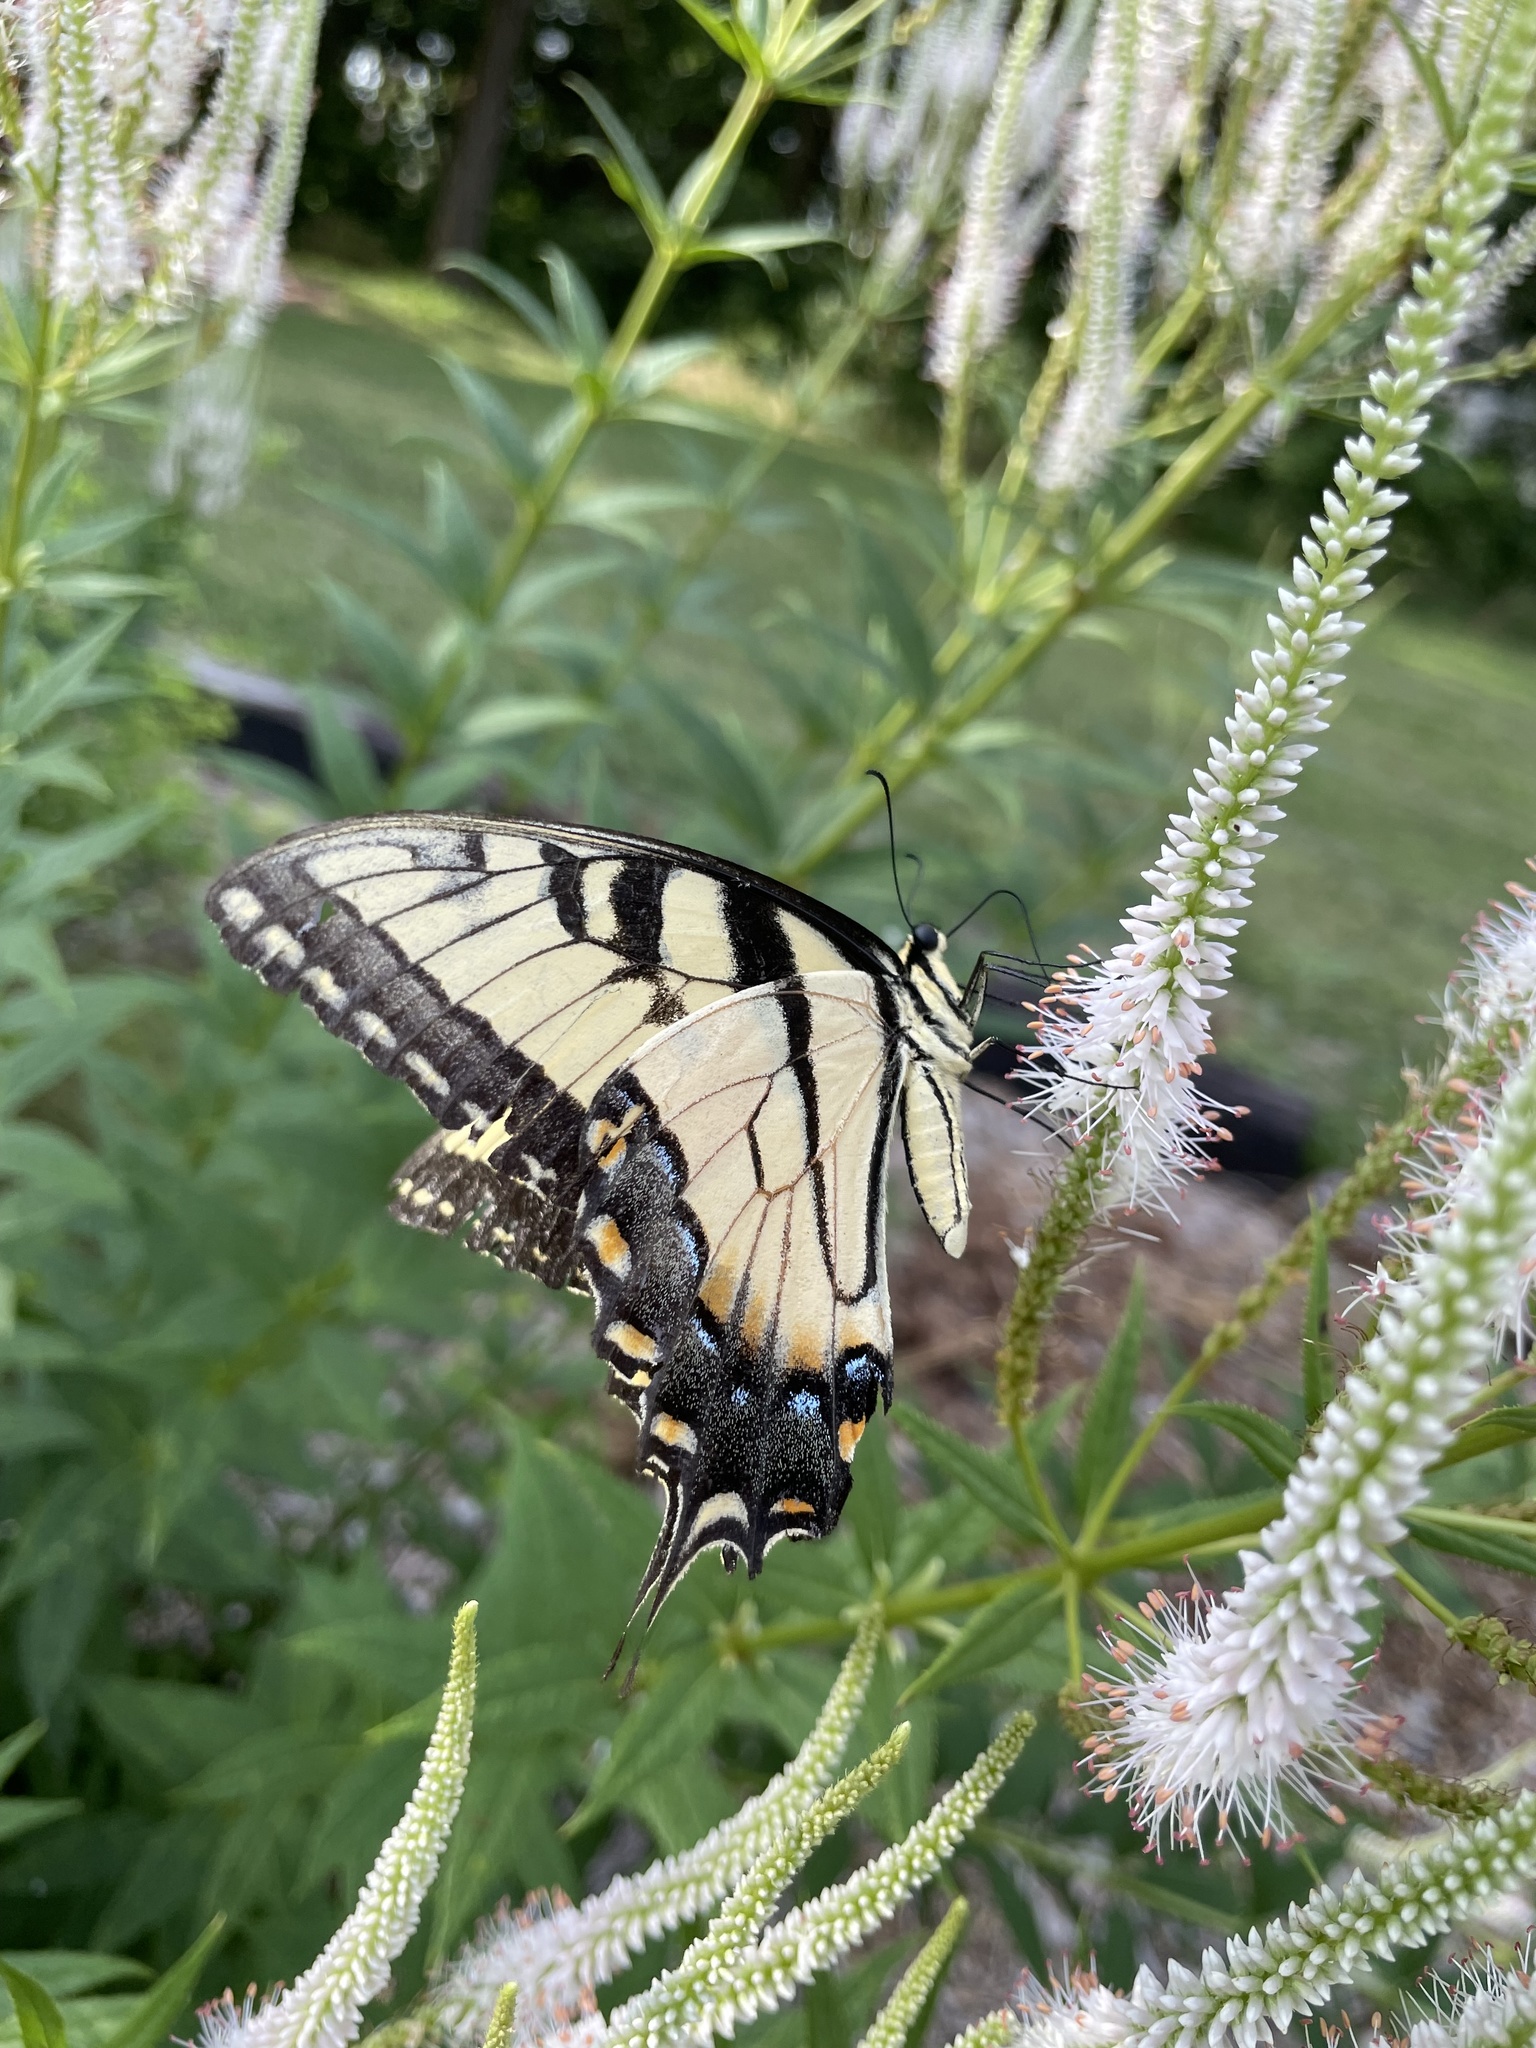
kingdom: Animalia
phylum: Arthropoda
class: Insecta
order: Lepidoptera
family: Papilionidae
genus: Papilio
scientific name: Papilio glaucus
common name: Tiger swallowtail
